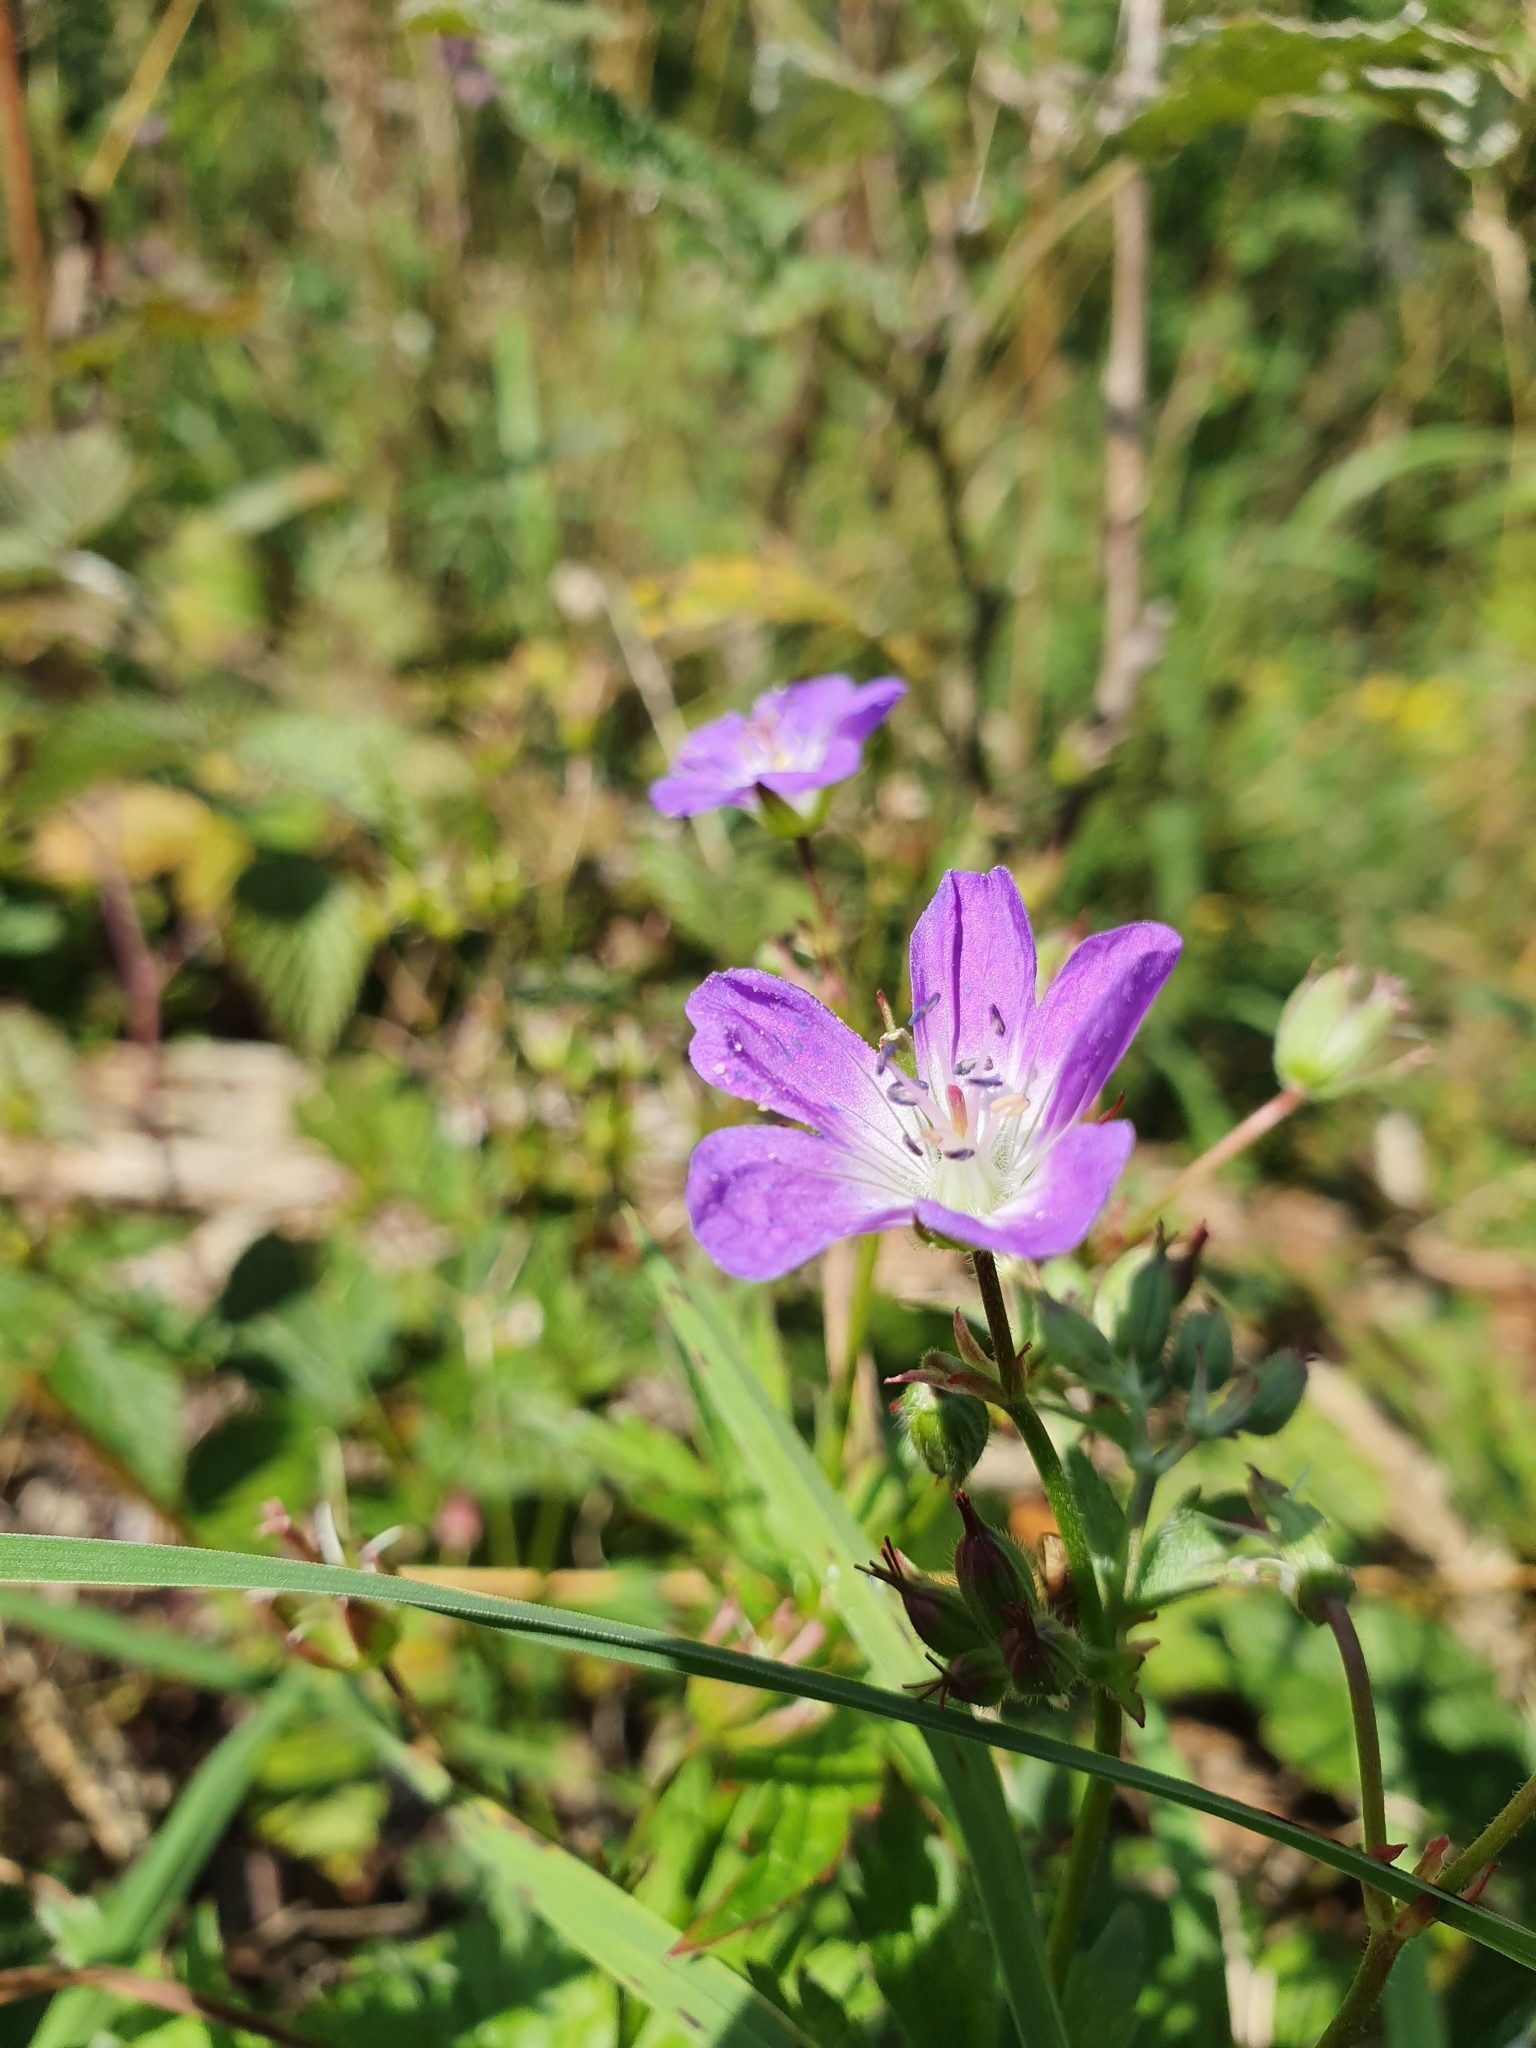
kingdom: Plantae
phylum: Tracheophyta
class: Magnoliopsida
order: Geraniales
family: Geraniaceae
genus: Geranium
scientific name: Geranium sylvaticum
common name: Wood crane's-bill
